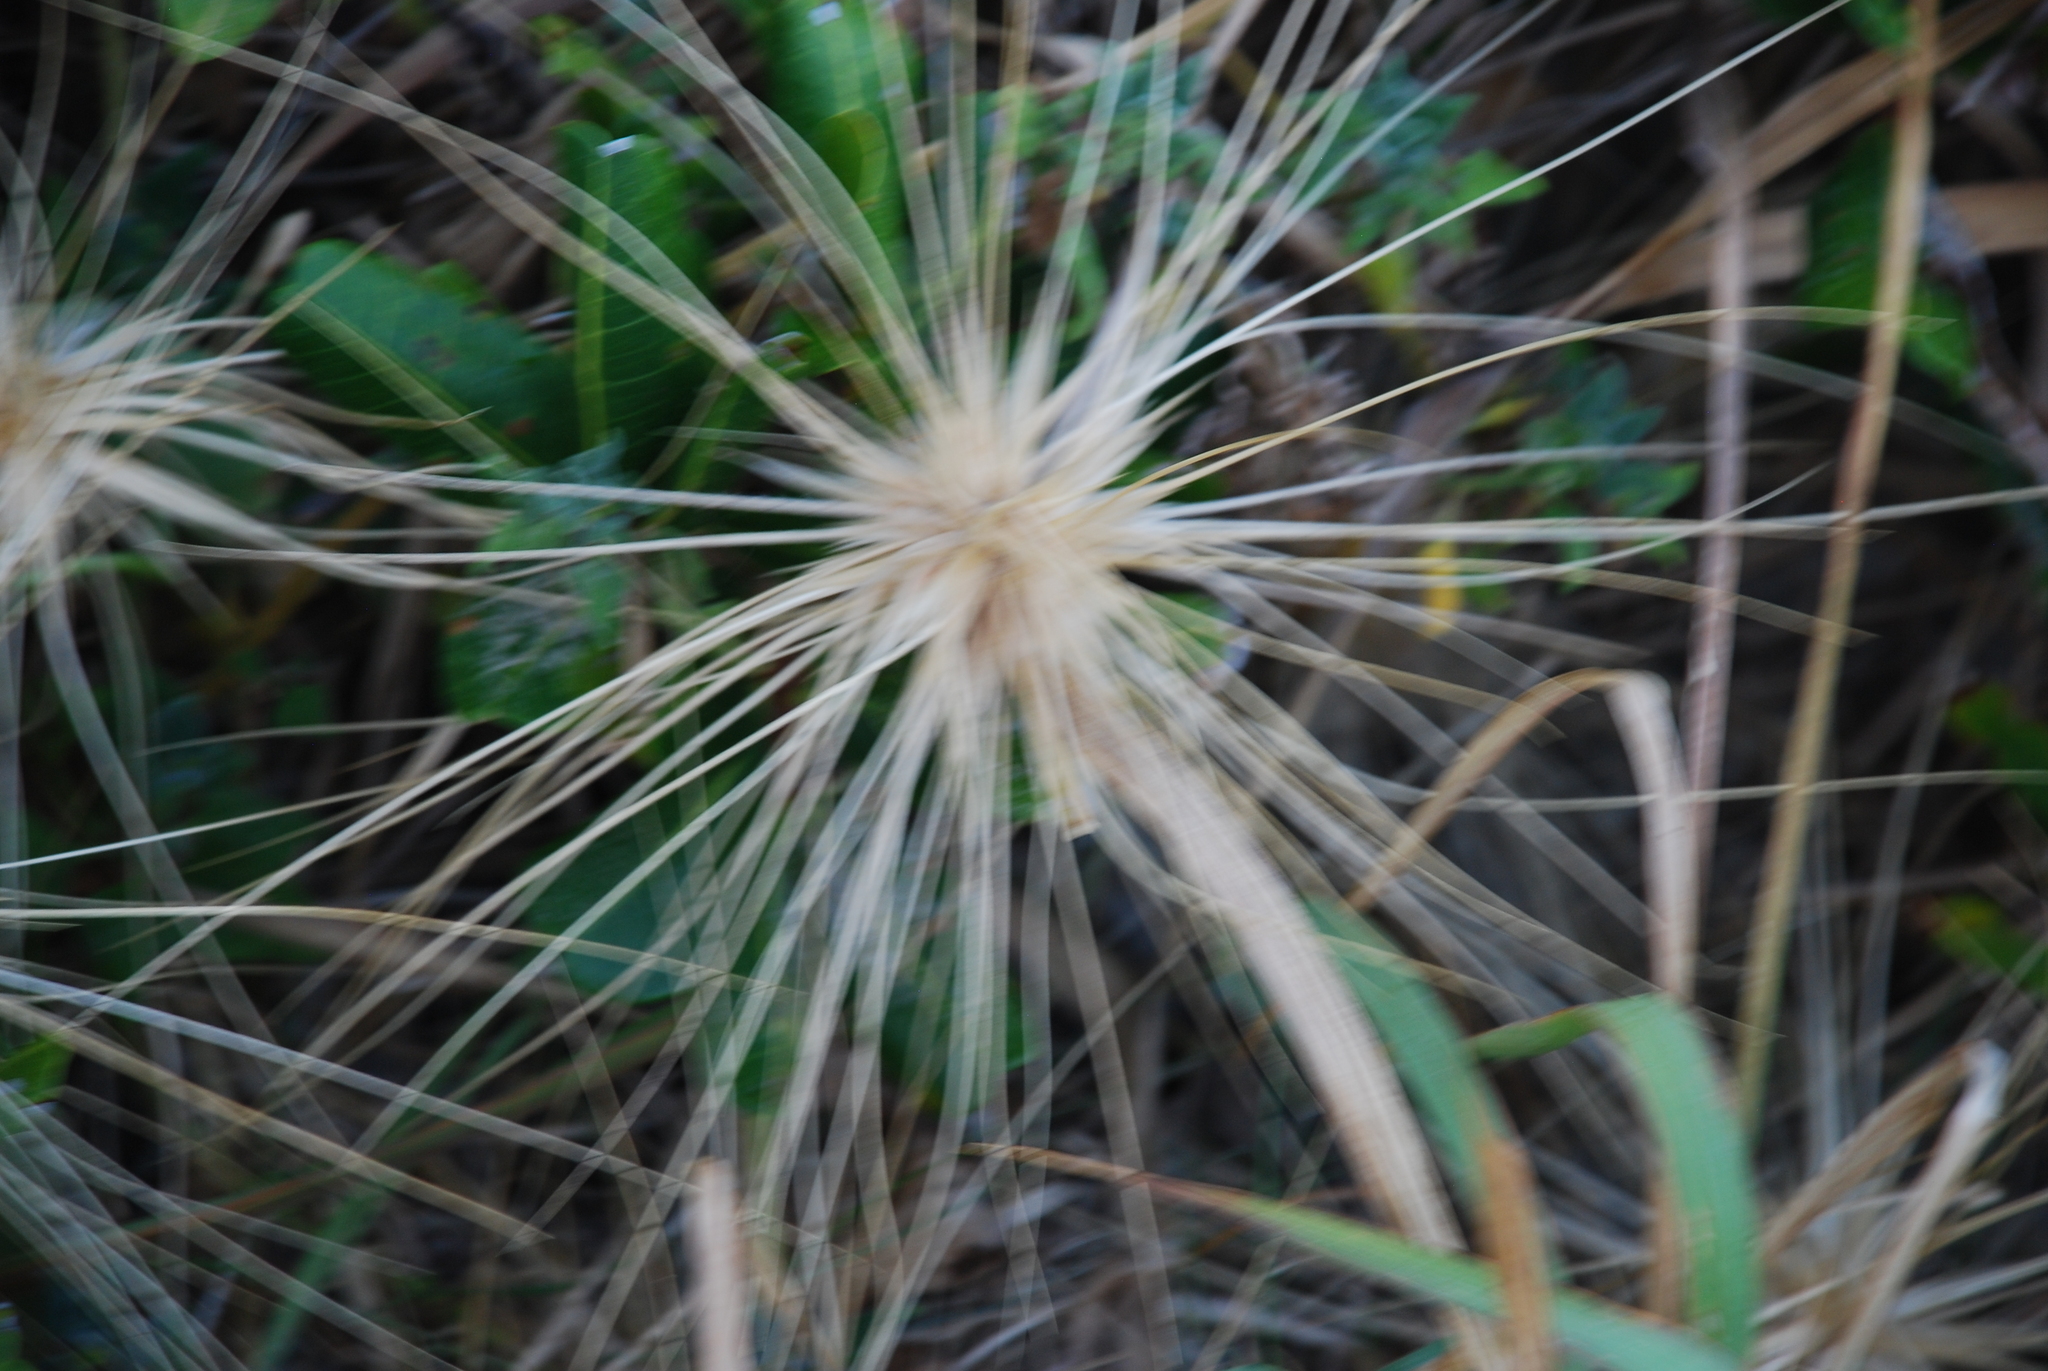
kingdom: Plantae
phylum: Tracheophyta
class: Liliopsida
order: Poales
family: Poaceae
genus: Spinifex
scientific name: Spinifex sericeus
